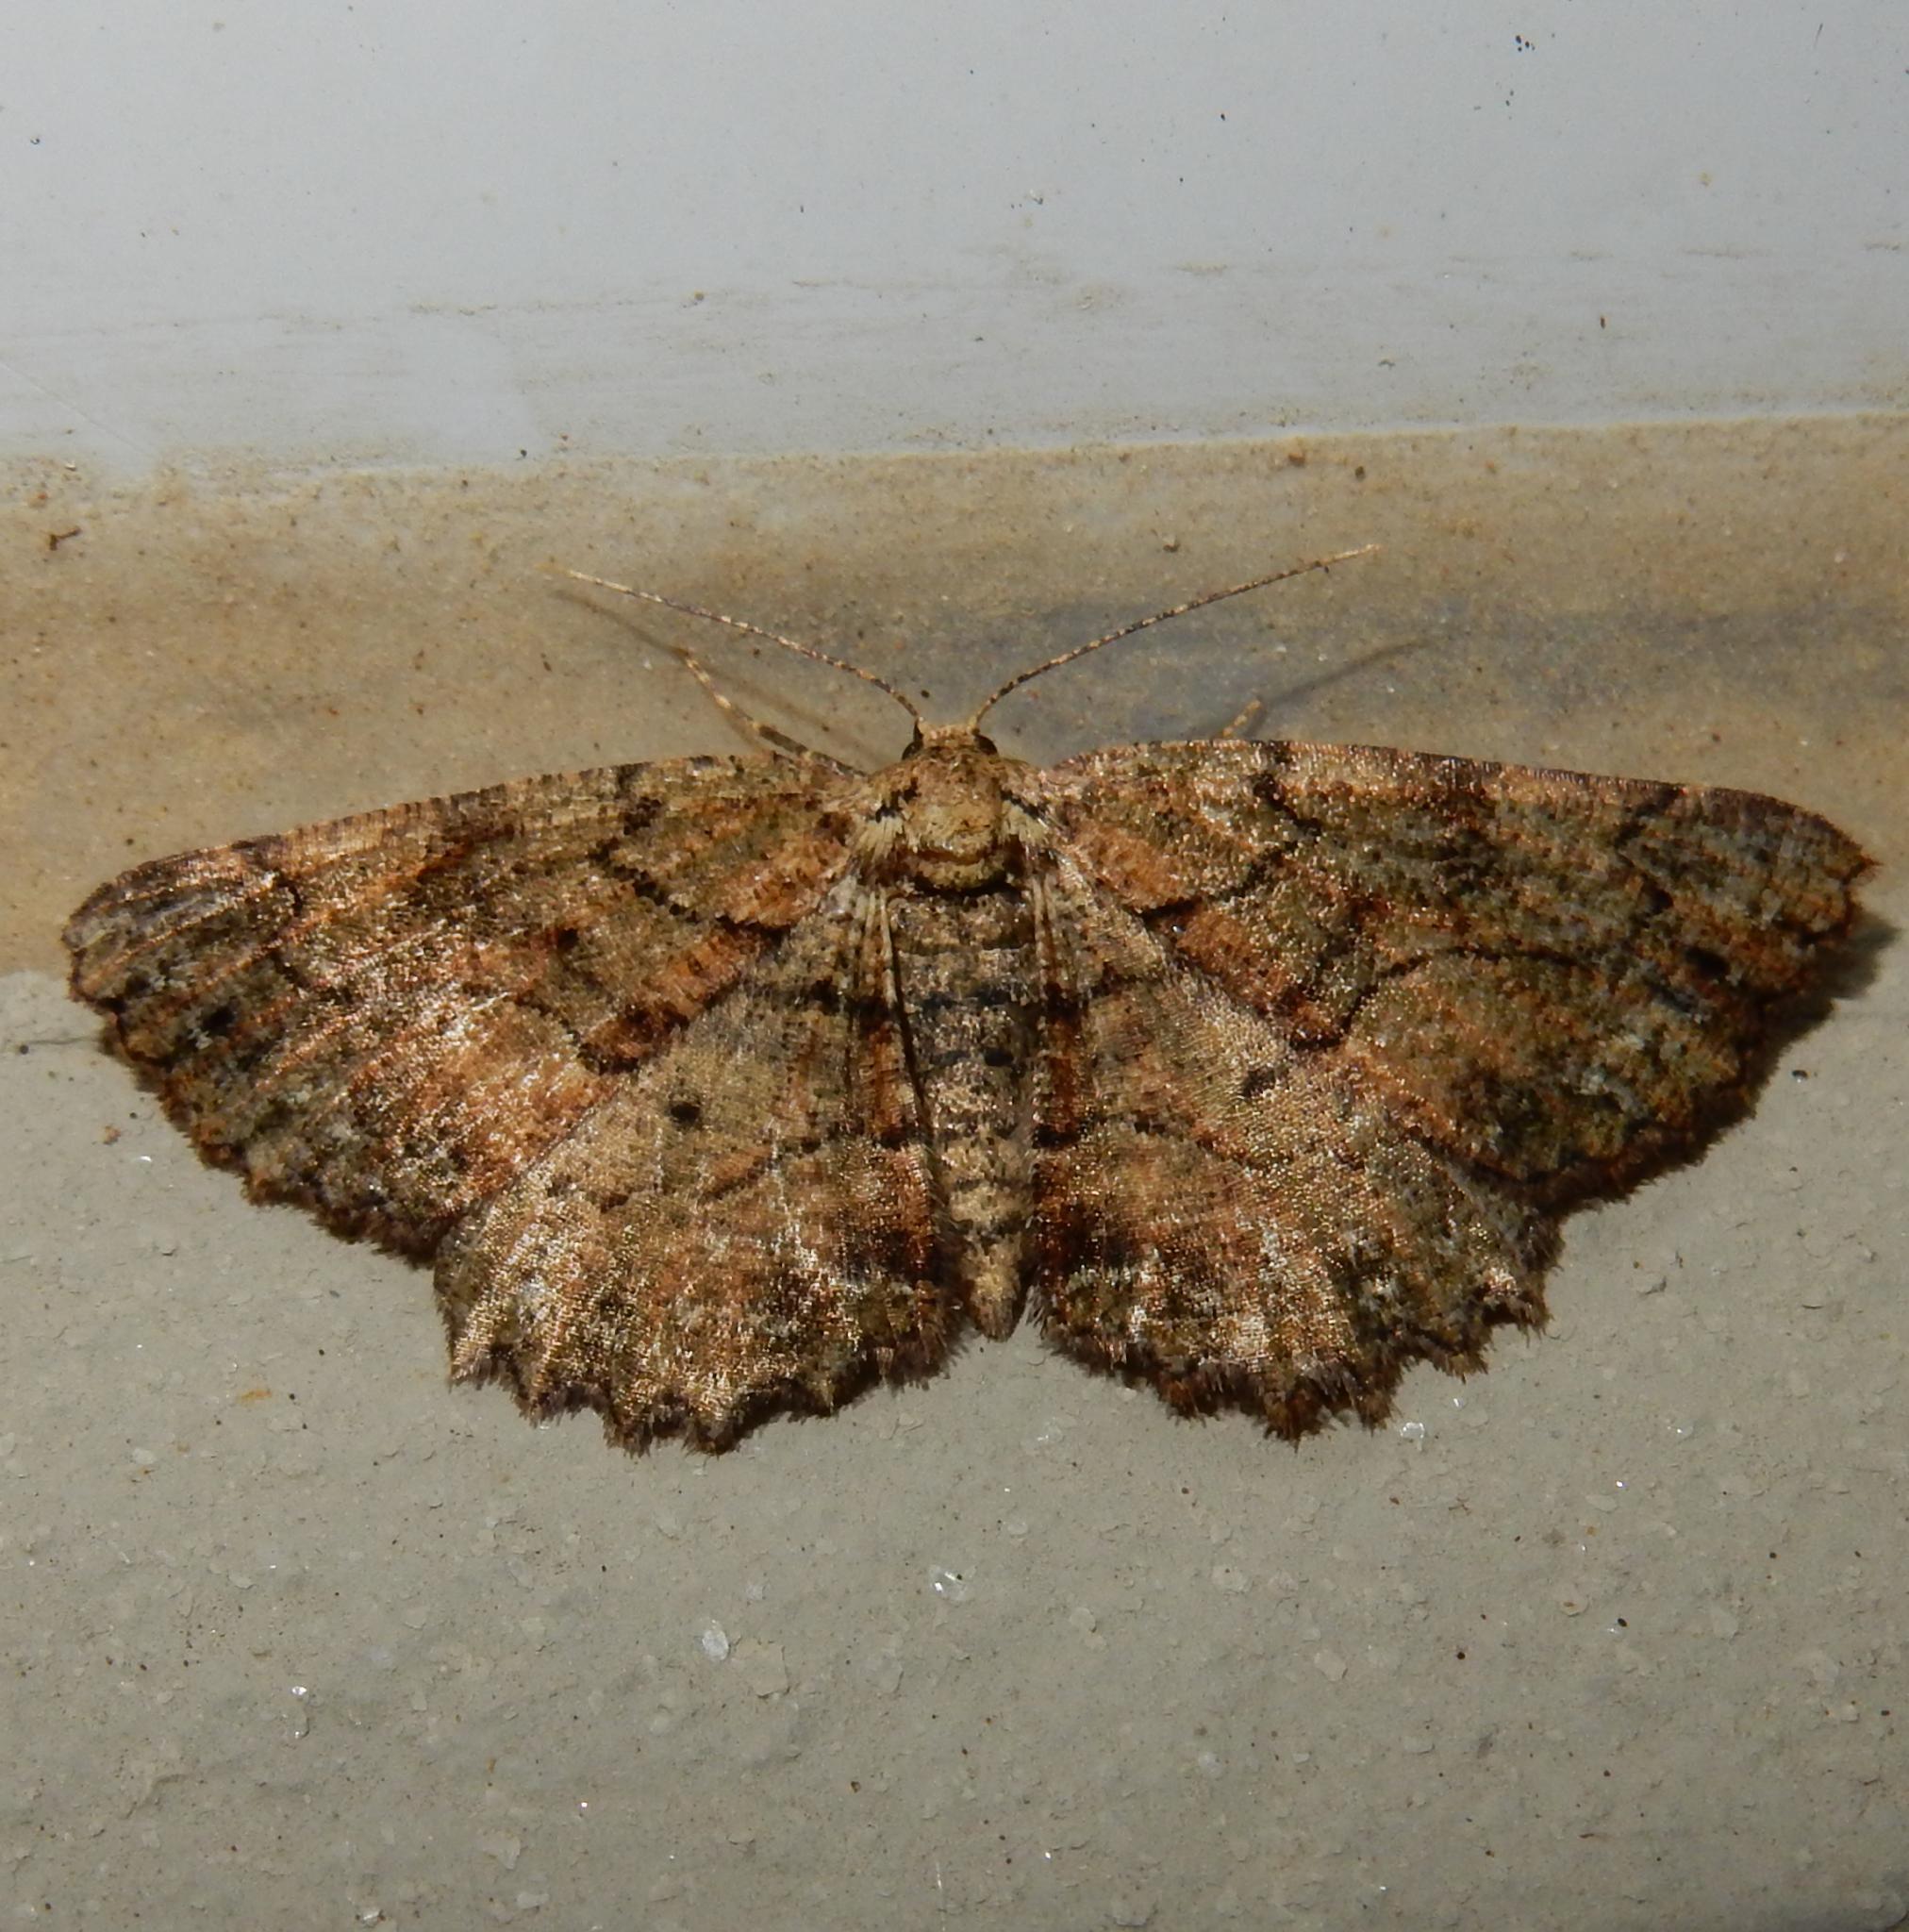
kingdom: Animalia
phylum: Arthropoda
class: Insecta
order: Lepidoptera
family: Geometridae
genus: Menophra
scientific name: Menophra serrataria
